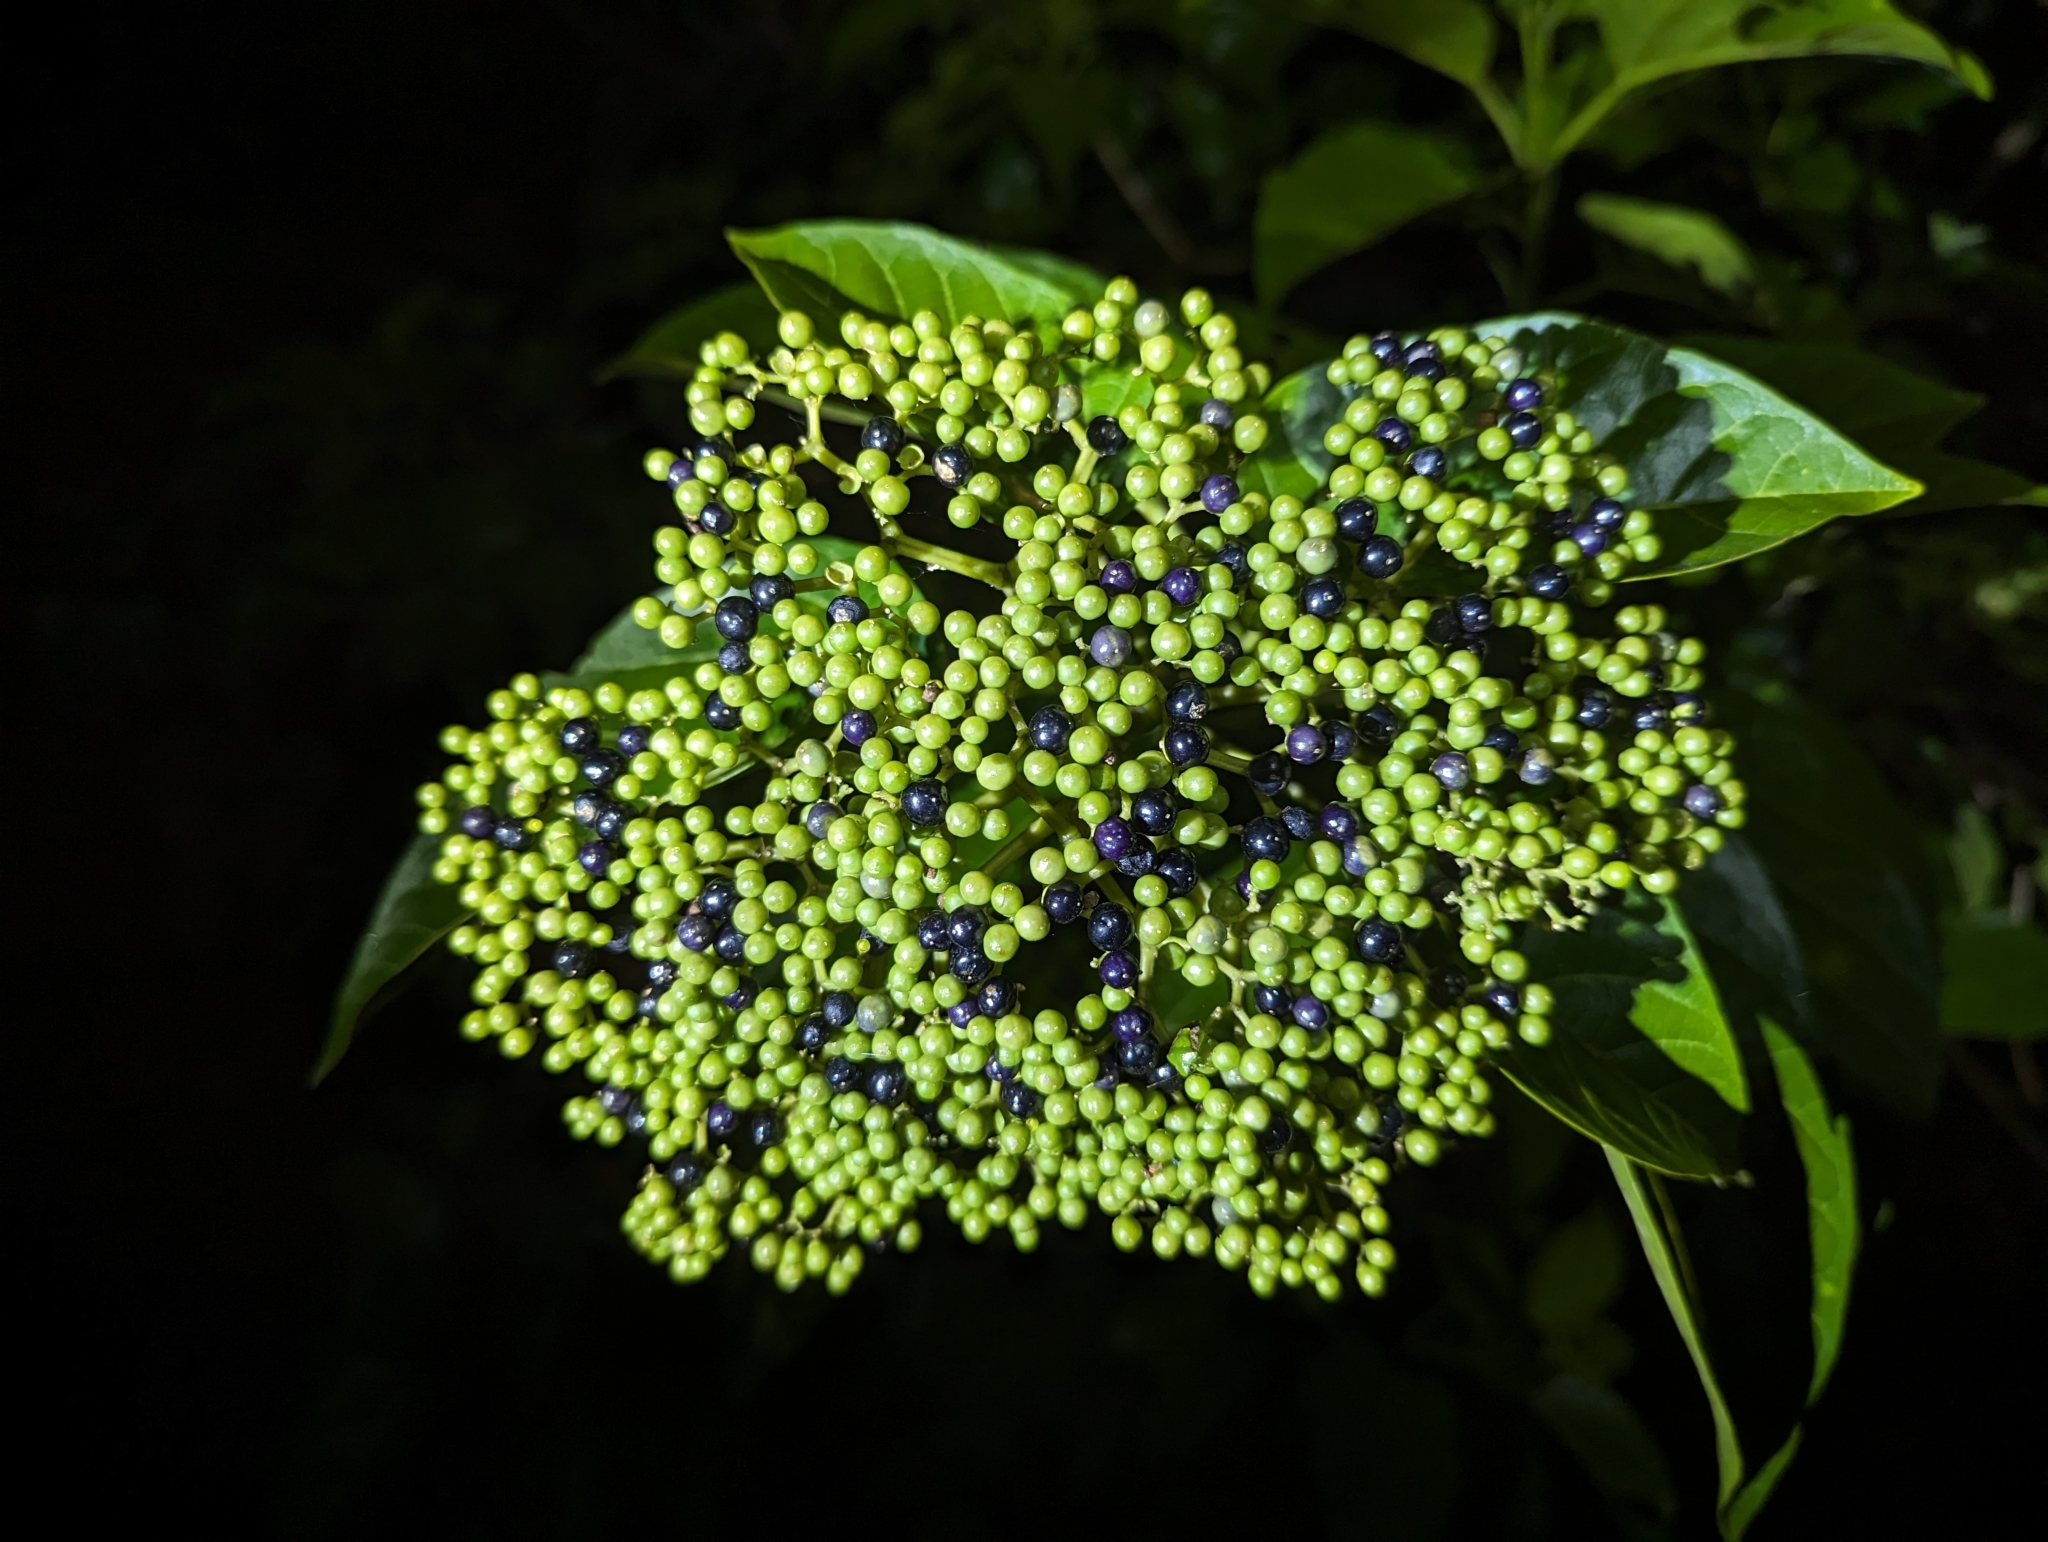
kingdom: Plantae
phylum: Tracheophyta
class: Magnoliopsida
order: Lamiales
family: Lamiaceae
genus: Premna
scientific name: Premna serratifolia
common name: Bastard guelder
